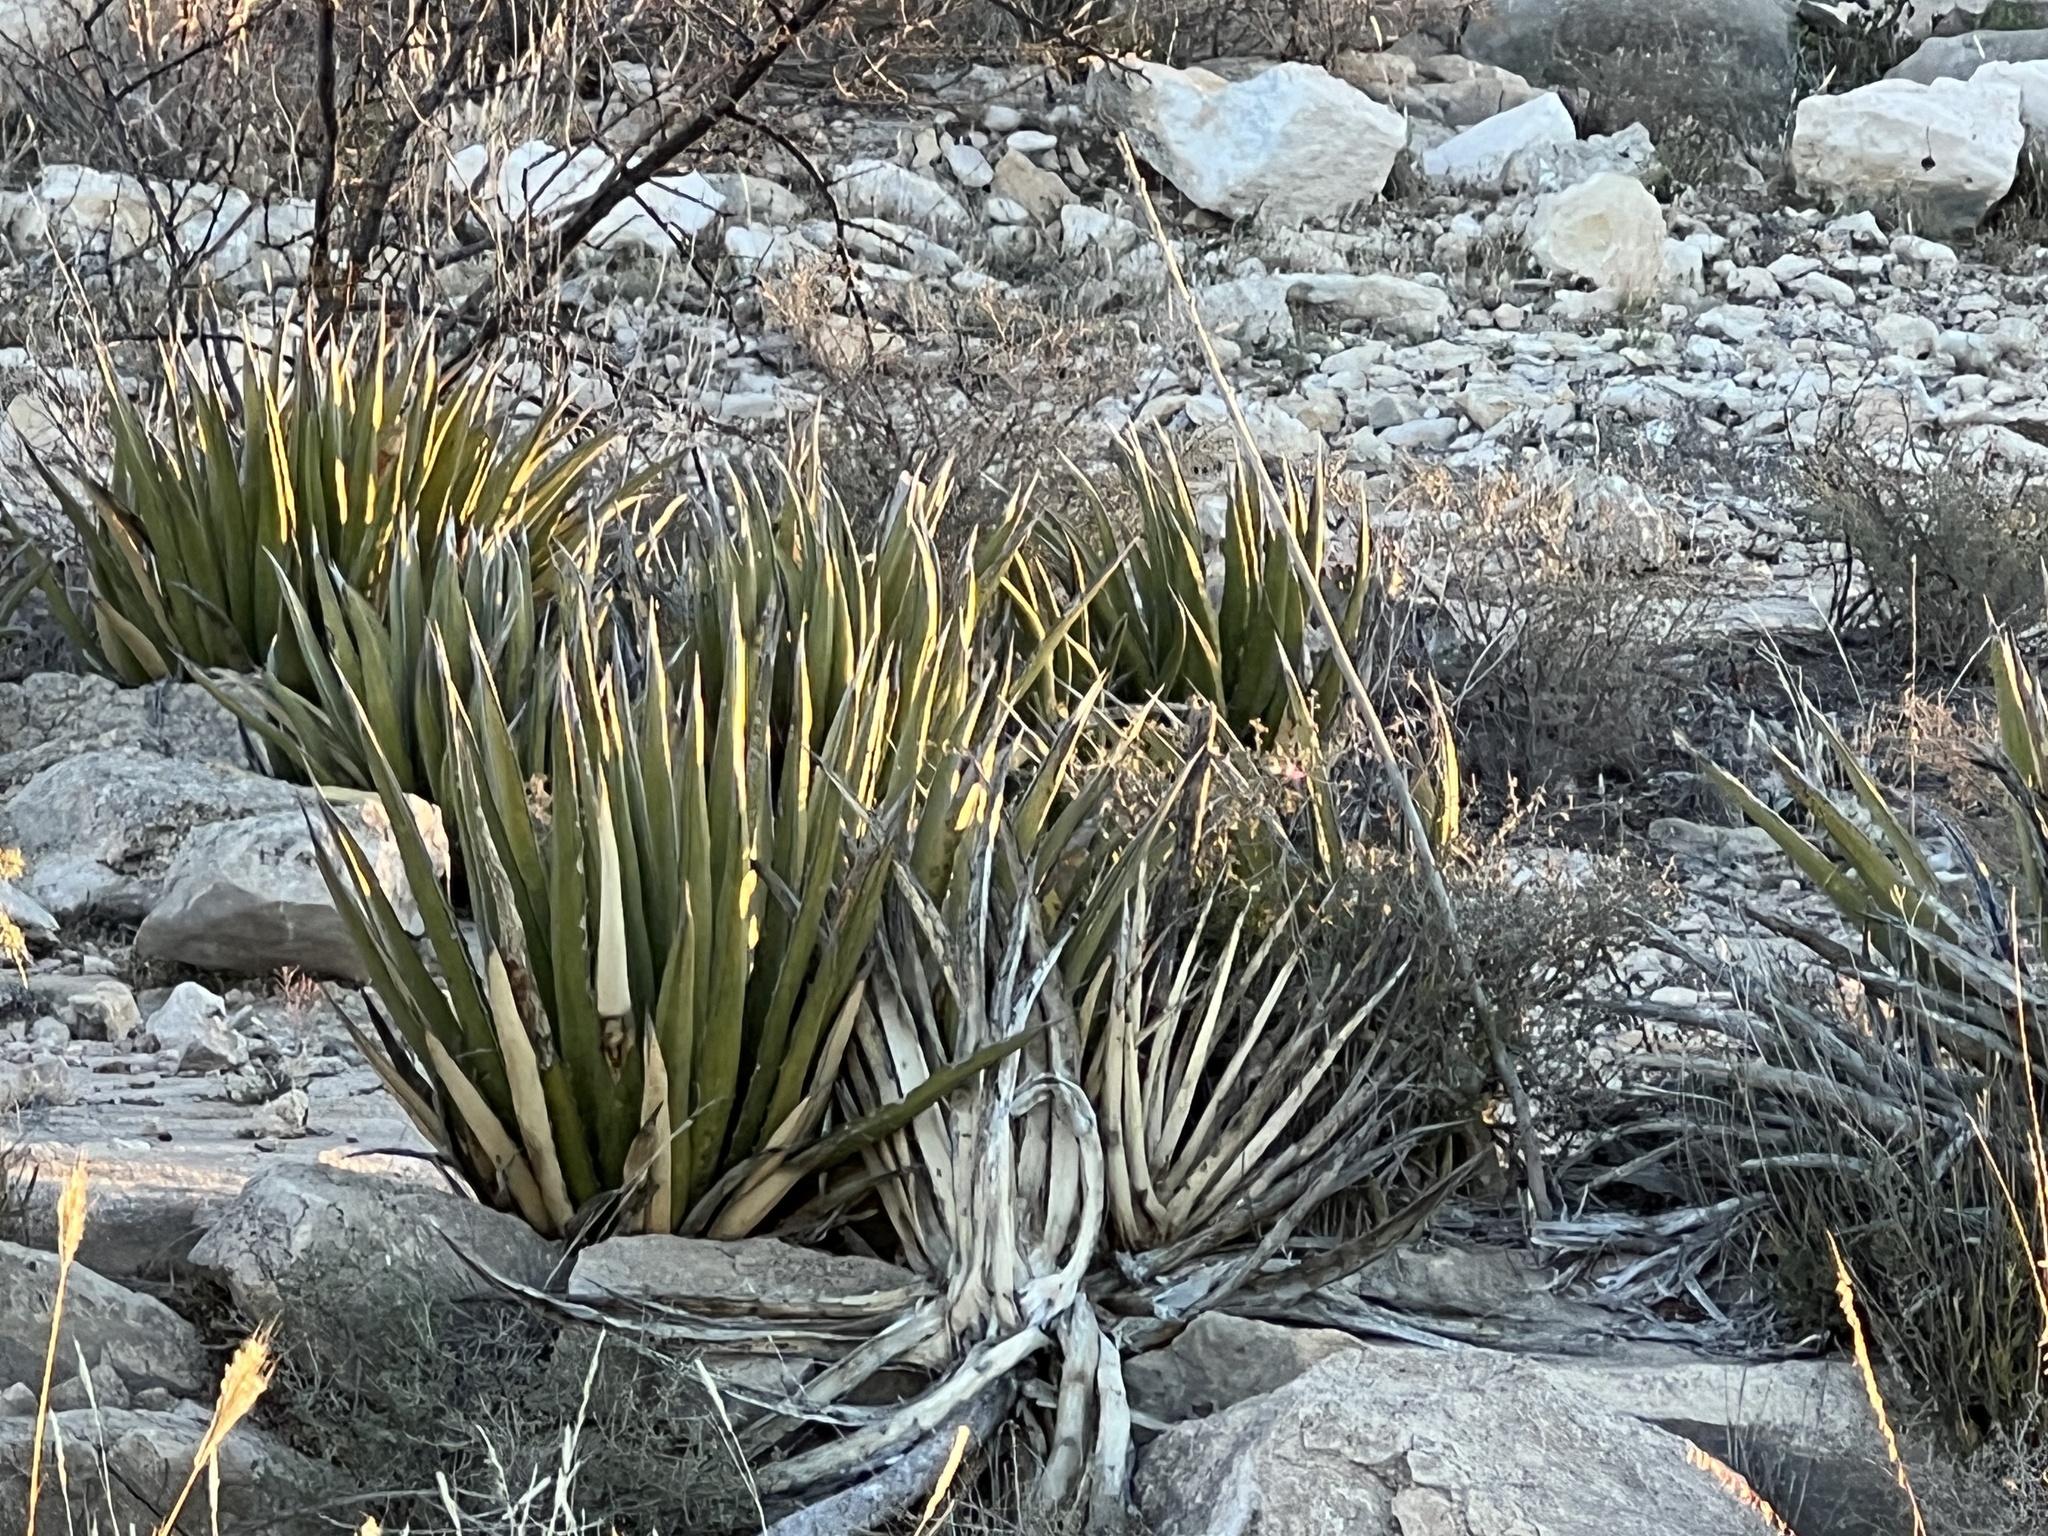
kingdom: Plantae
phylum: Tracheophyta
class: Liliopsida
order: Asparagales
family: Asparagaceae
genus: Agave
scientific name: Agave lechuguilla
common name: Lecheguilla agave
